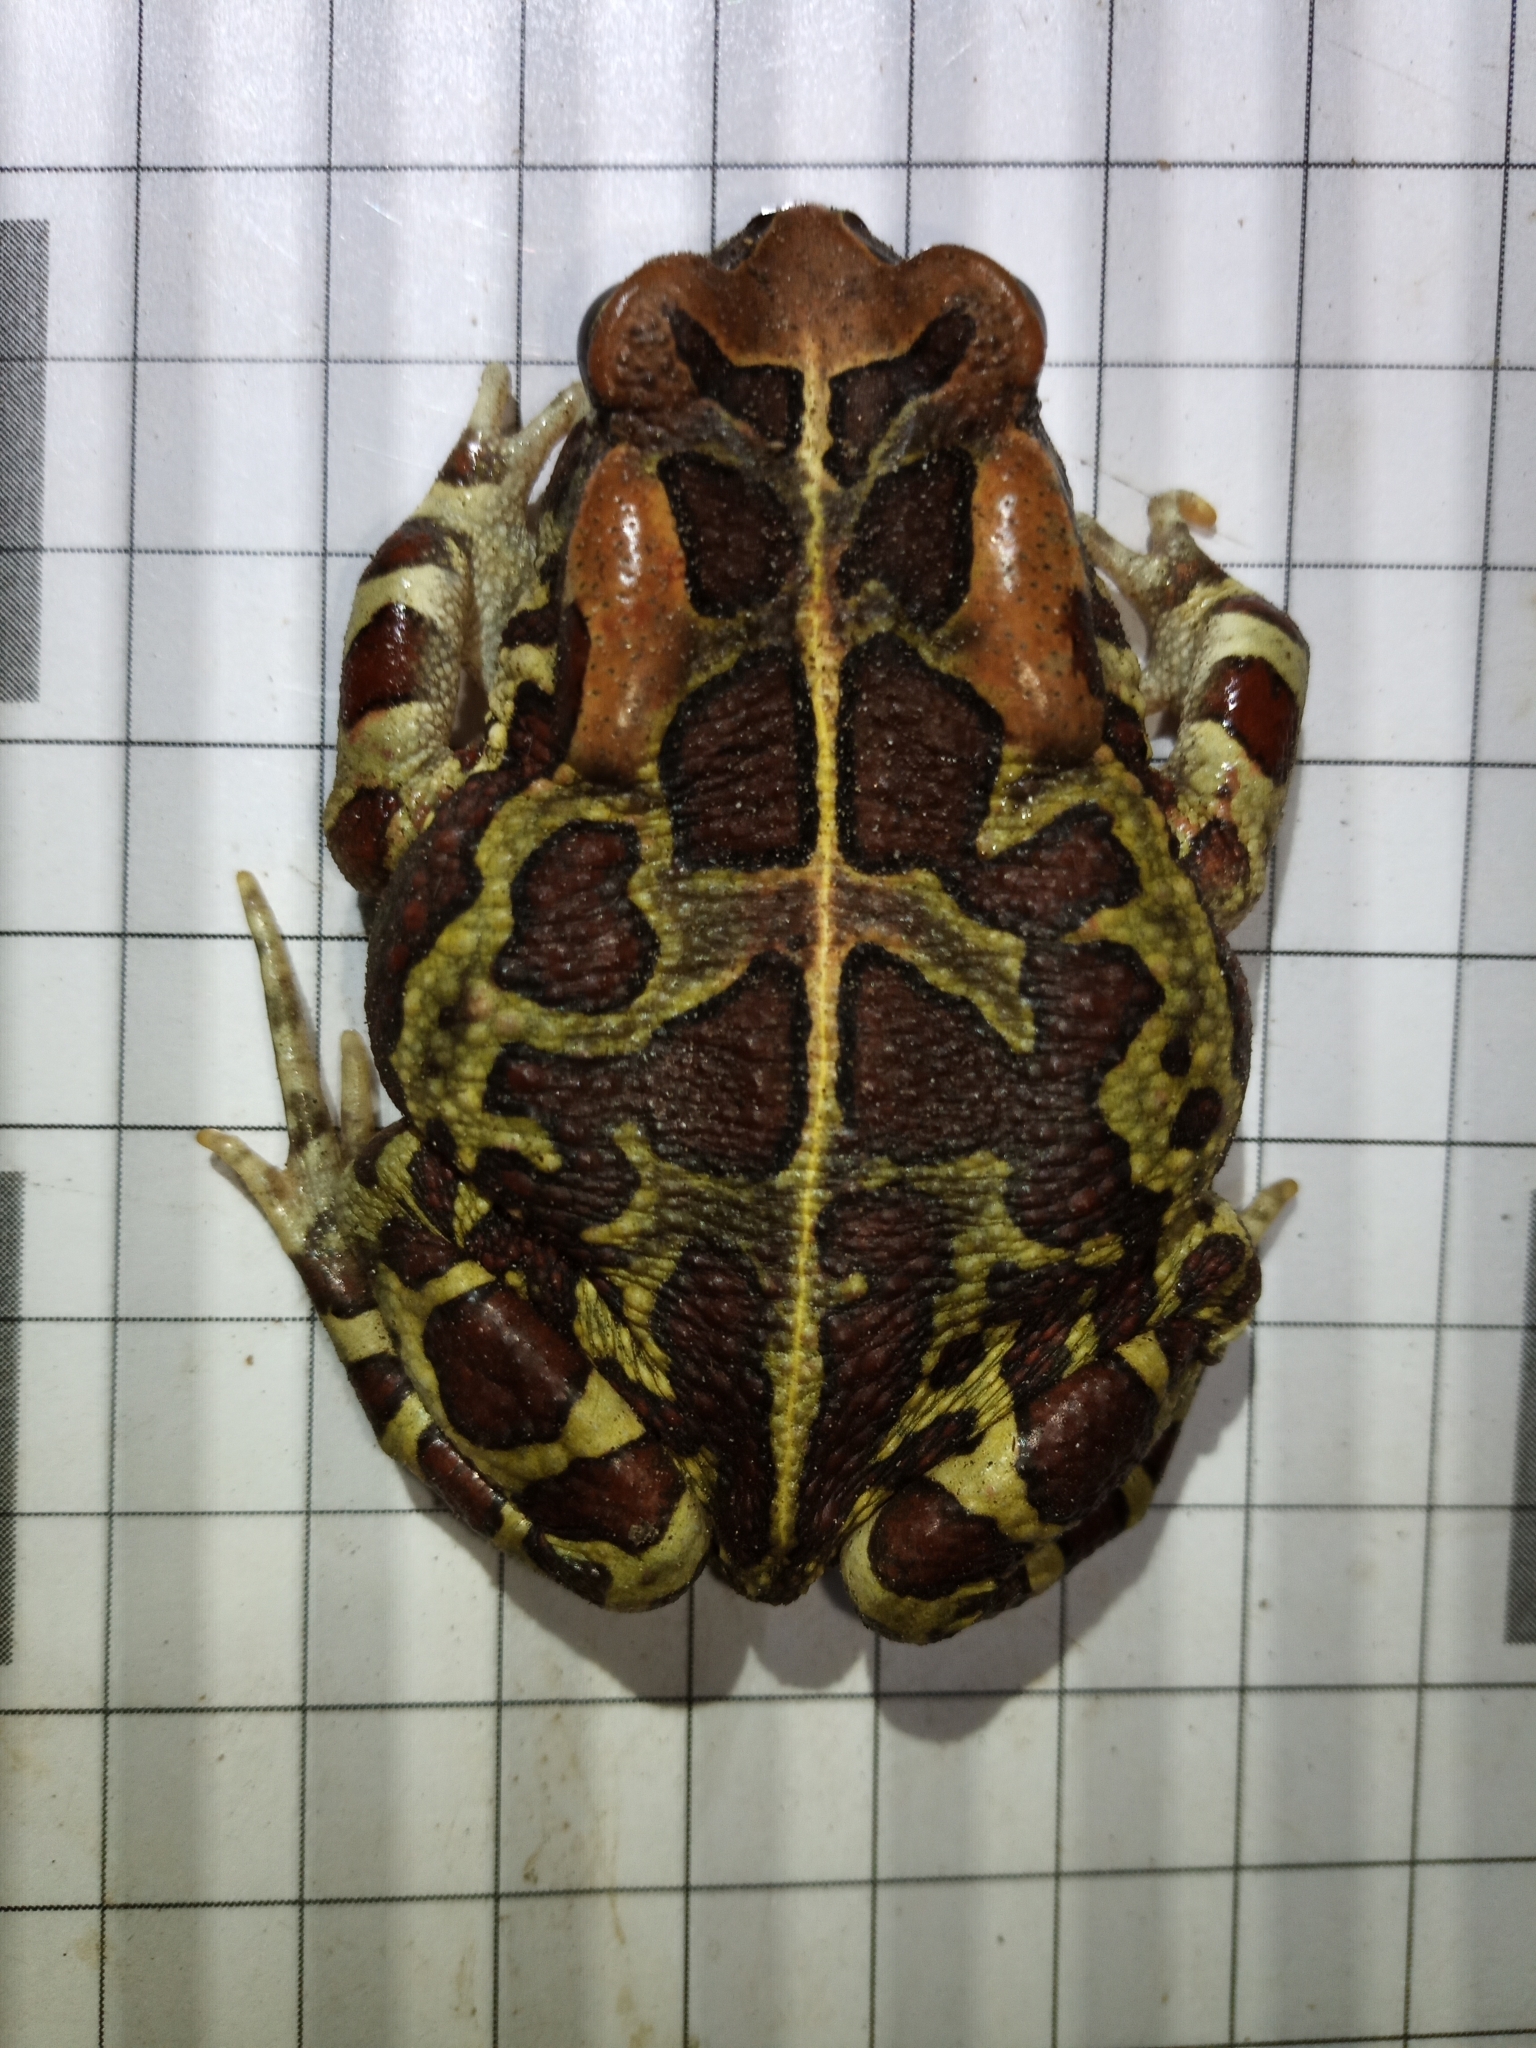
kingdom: Animalia
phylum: Chordata
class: Amphibia
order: Anura
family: Bufonidae
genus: Sclerophrys
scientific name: Sclerophrys pantherina
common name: Panther toad
